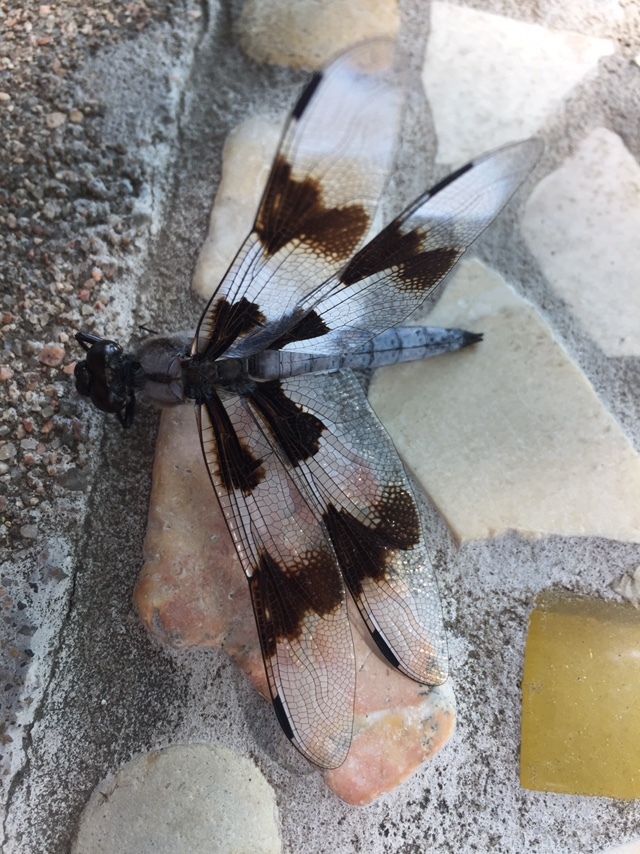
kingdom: Animalia
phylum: Arthropoda
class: Insecta
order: Odonata
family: Libellulidae
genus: Libellula
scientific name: Libellula forensis
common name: Eight-spotted skimmer
